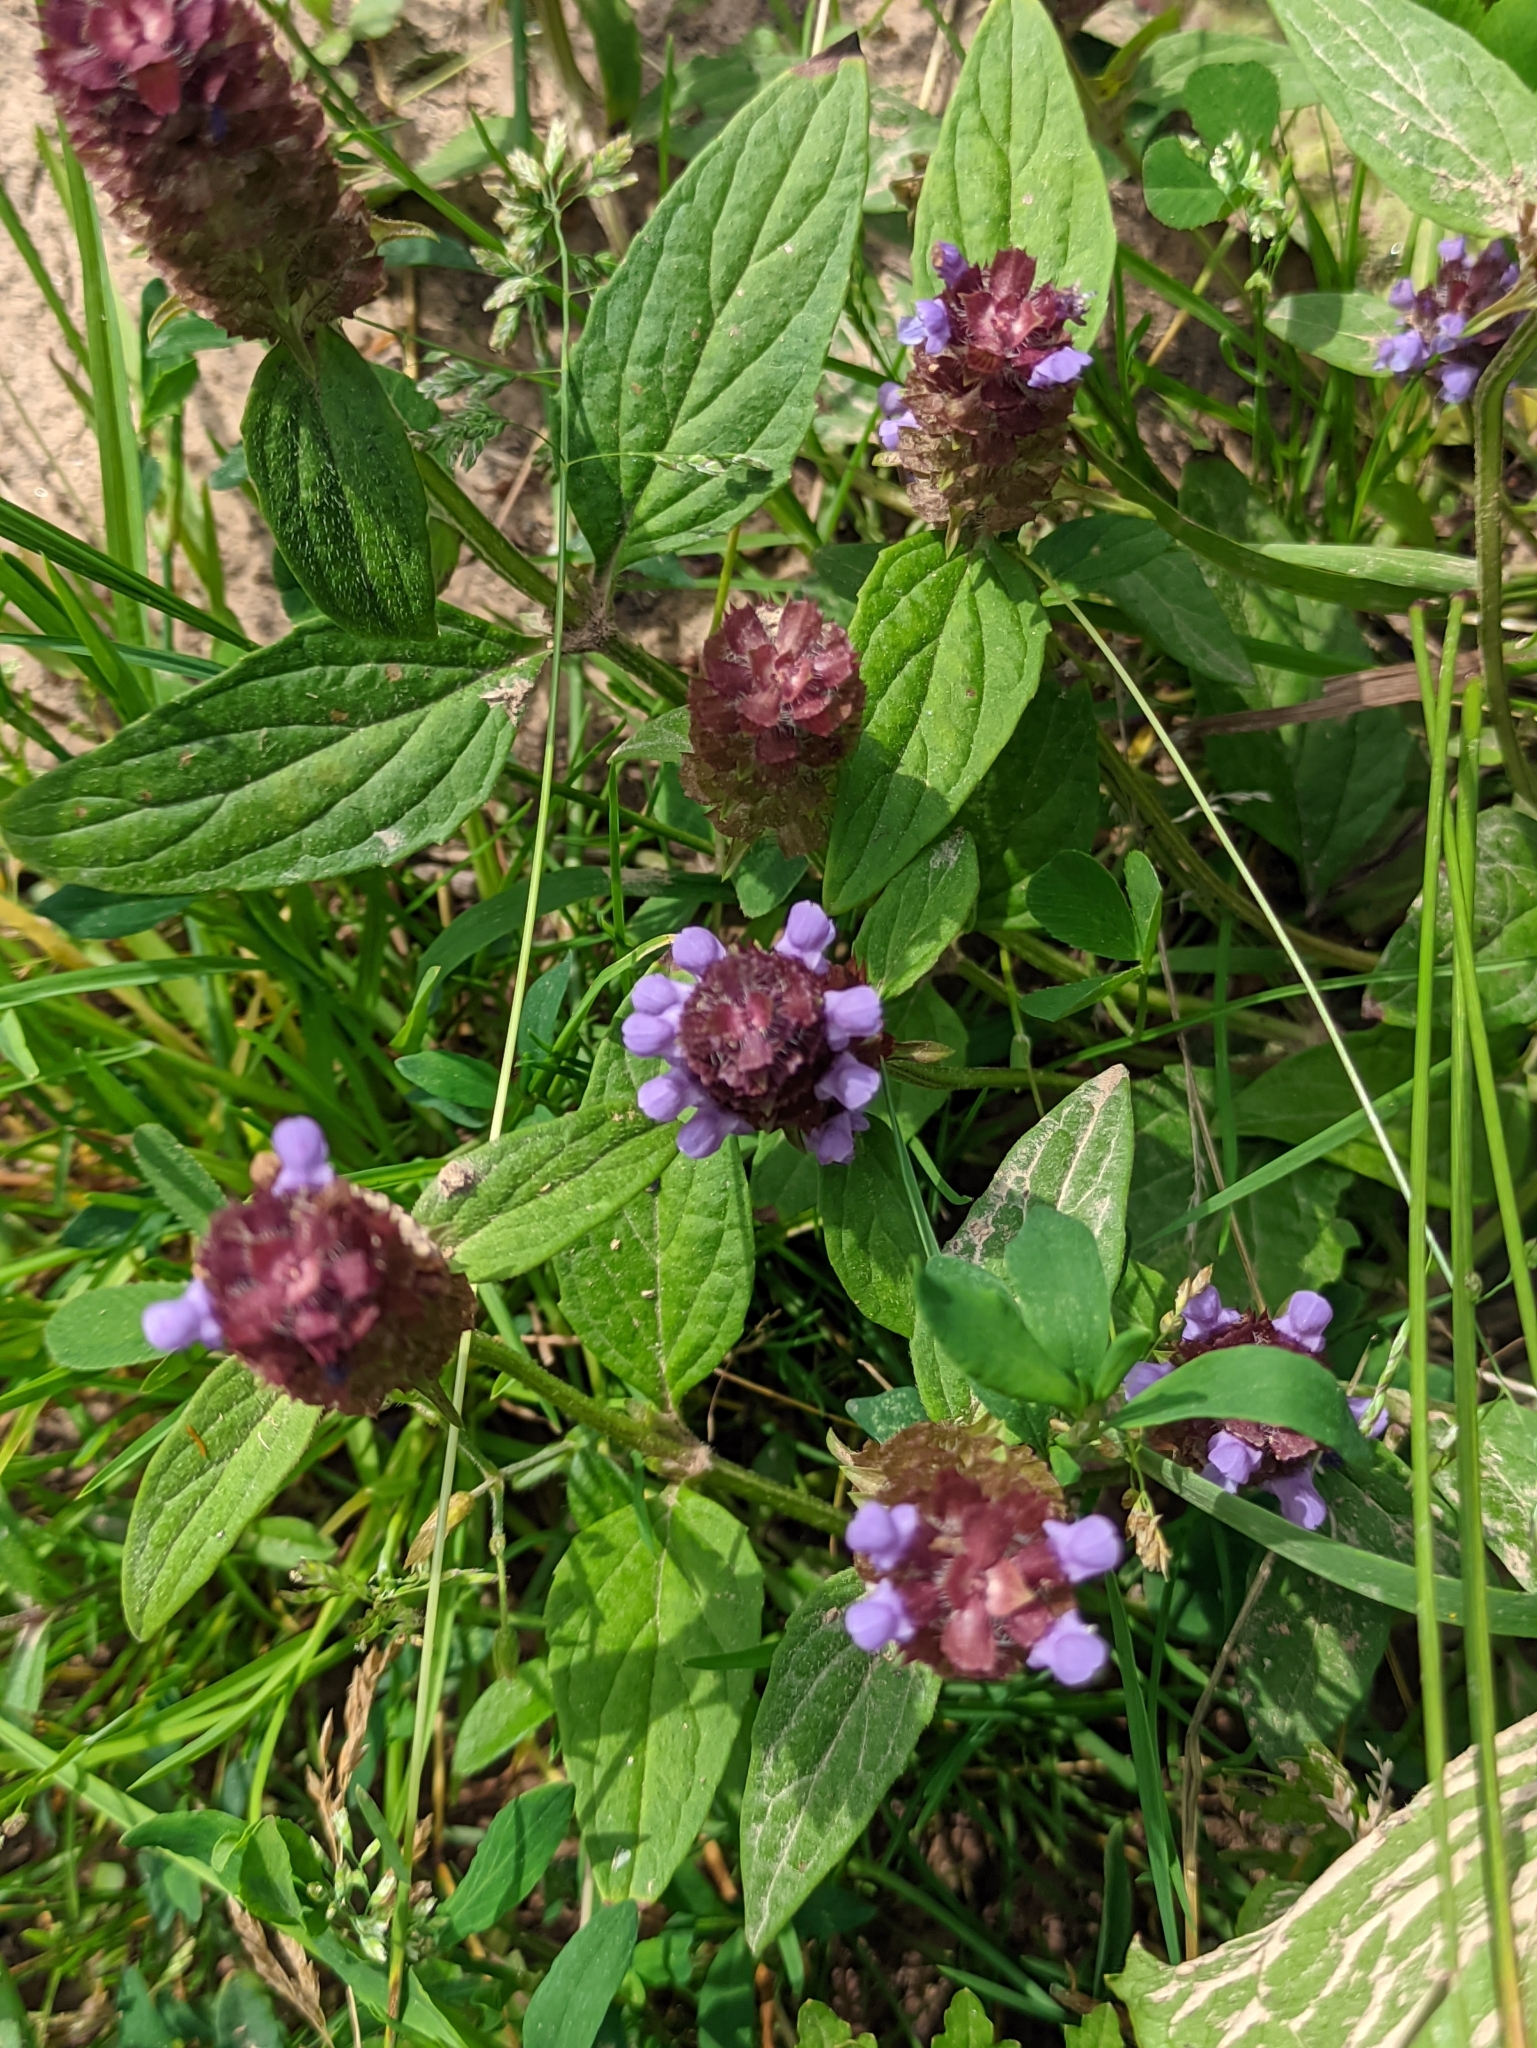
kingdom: Plantae
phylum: Tracheophyta
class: Magnoliopsida
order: Lamiales
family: Lamiaceae
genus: Prunella
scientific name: Prunella vulgaris
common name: Heal-all
